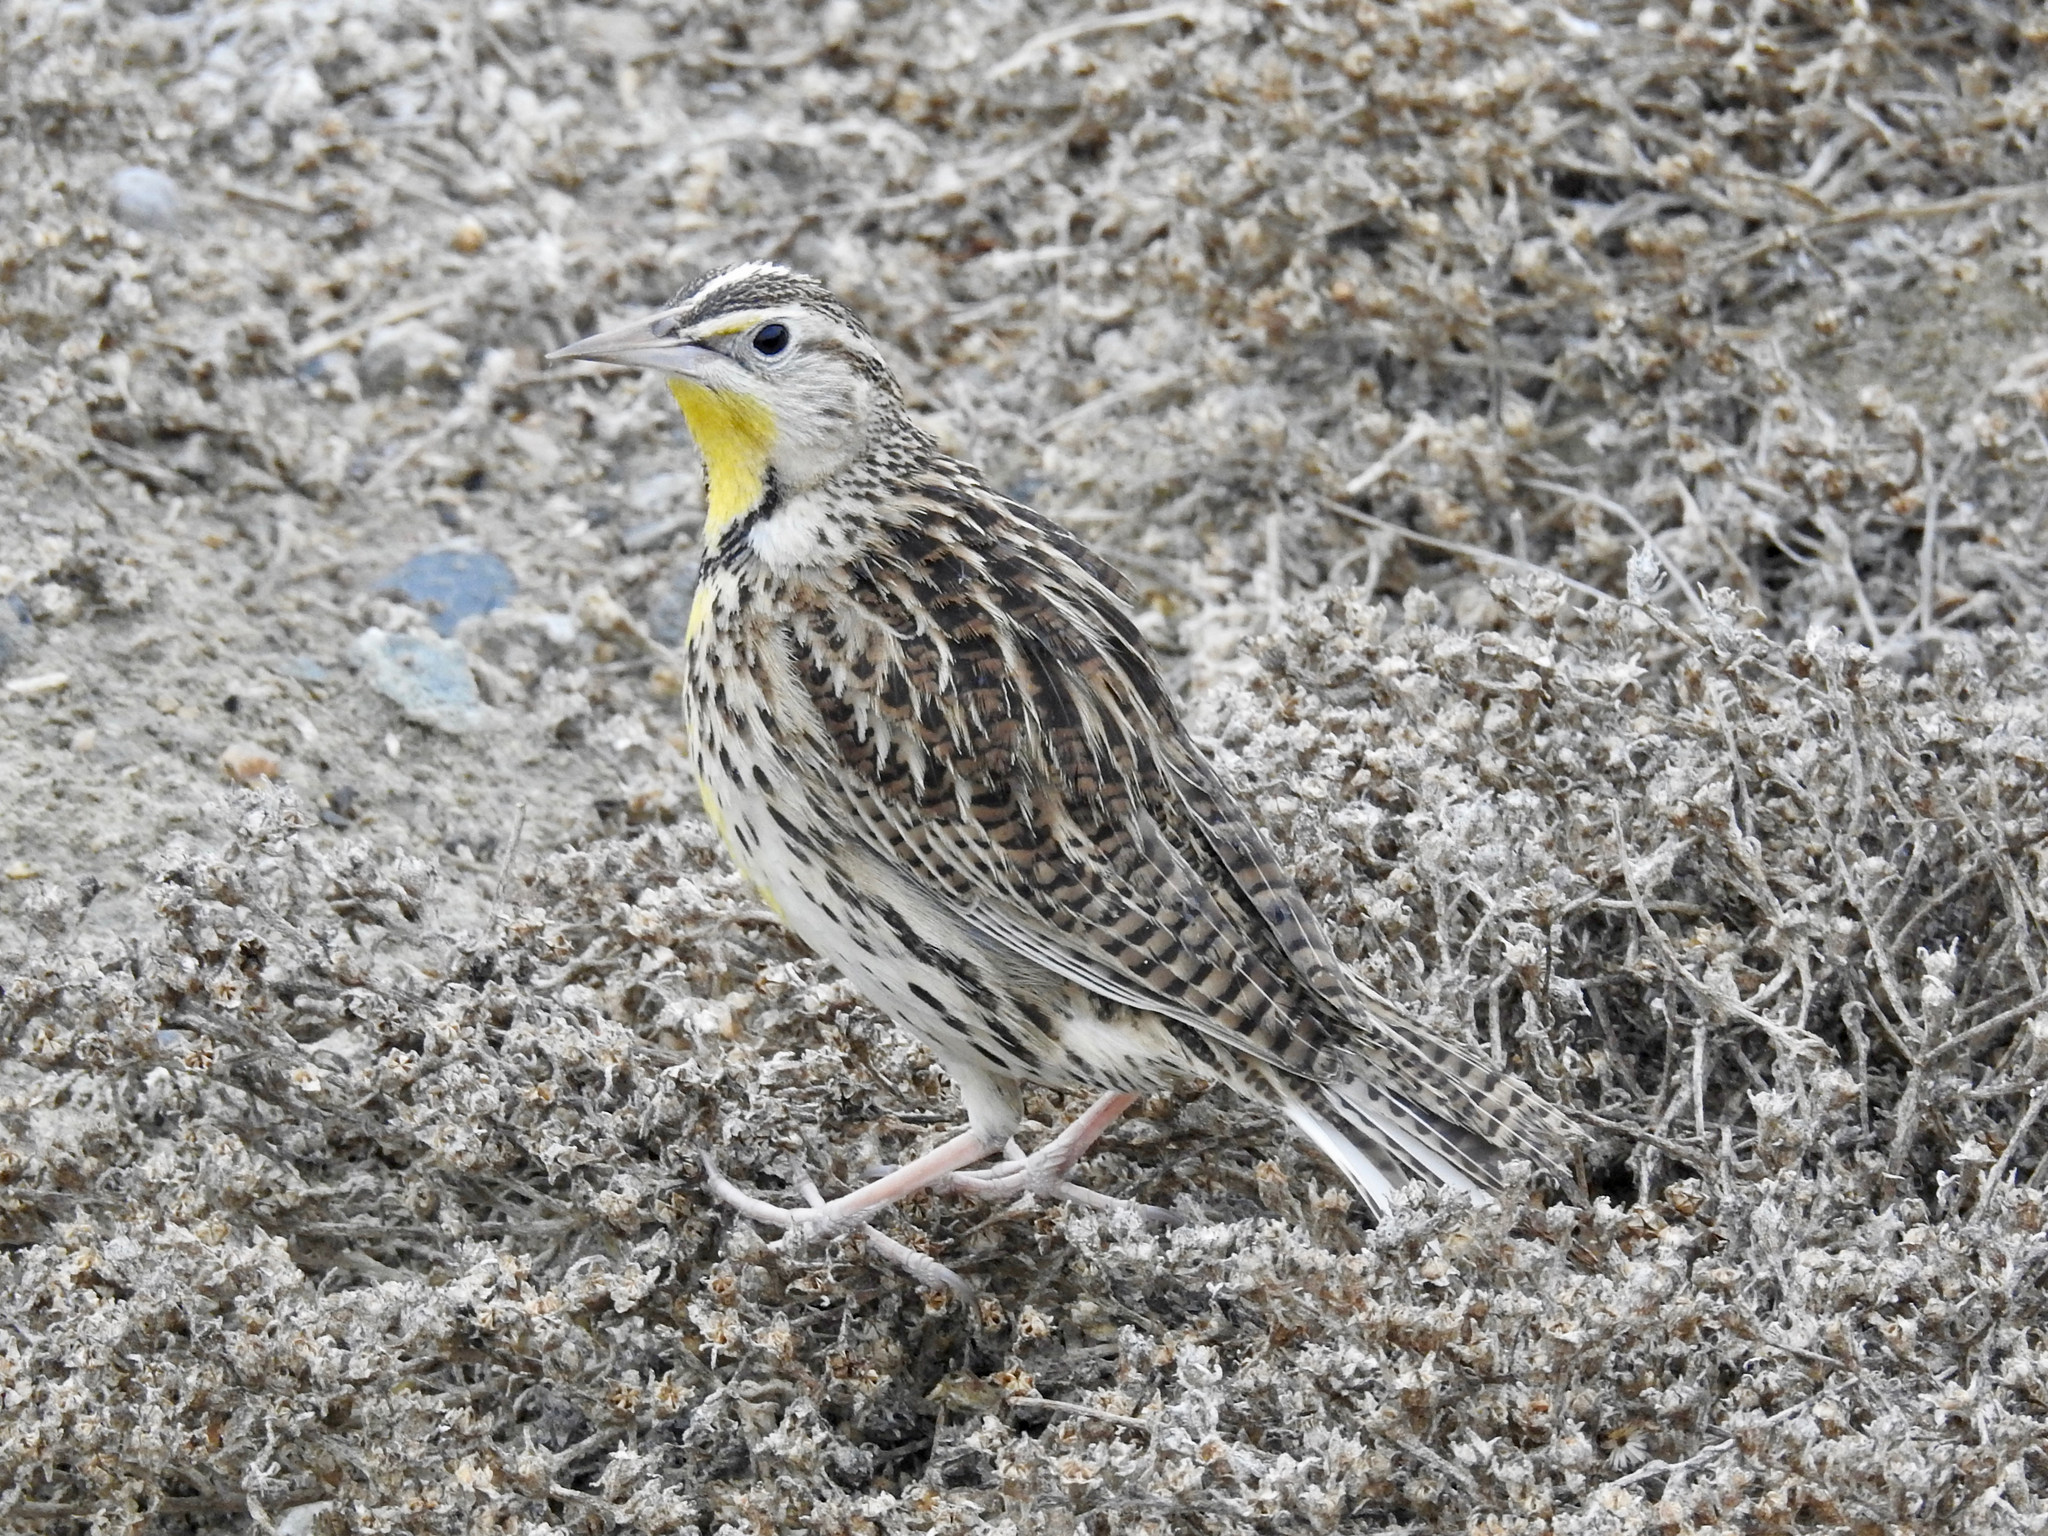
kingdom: Animalia
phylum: Chordata
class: Aves
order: Passeriformes
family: Icteridae
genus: Sturnella
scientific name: Sturnella neglecta
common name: Western meadowlark
